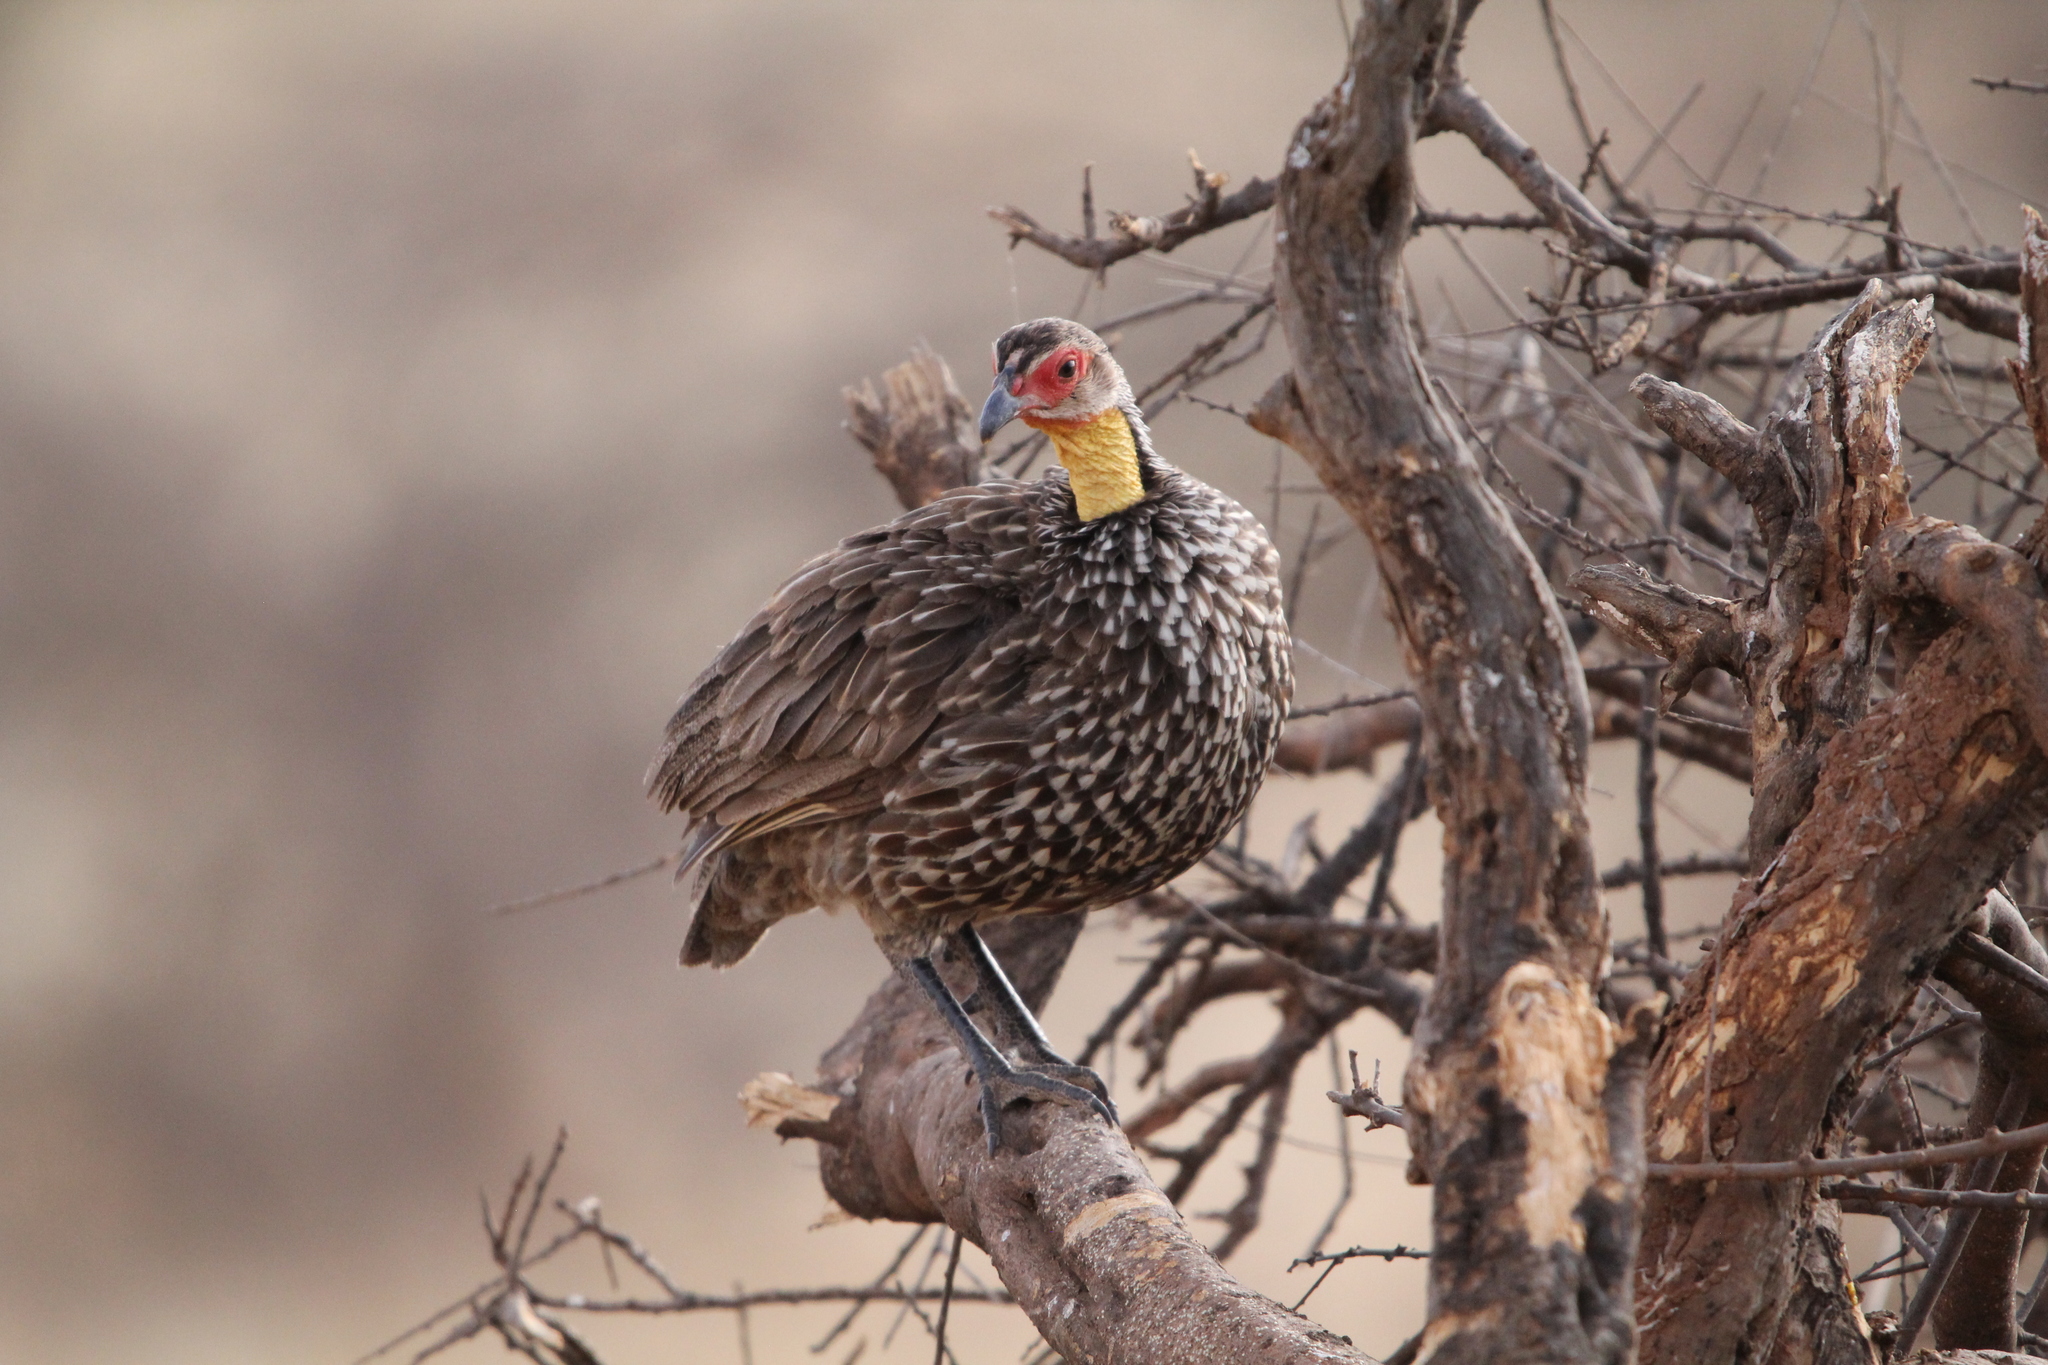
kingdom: Animalia
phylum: Chordata
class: Aves
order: Galliformes
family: Phasianidae
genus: Pternistis
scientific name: Pternistis leucoscepus
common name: Yellow-necked spurfowl
